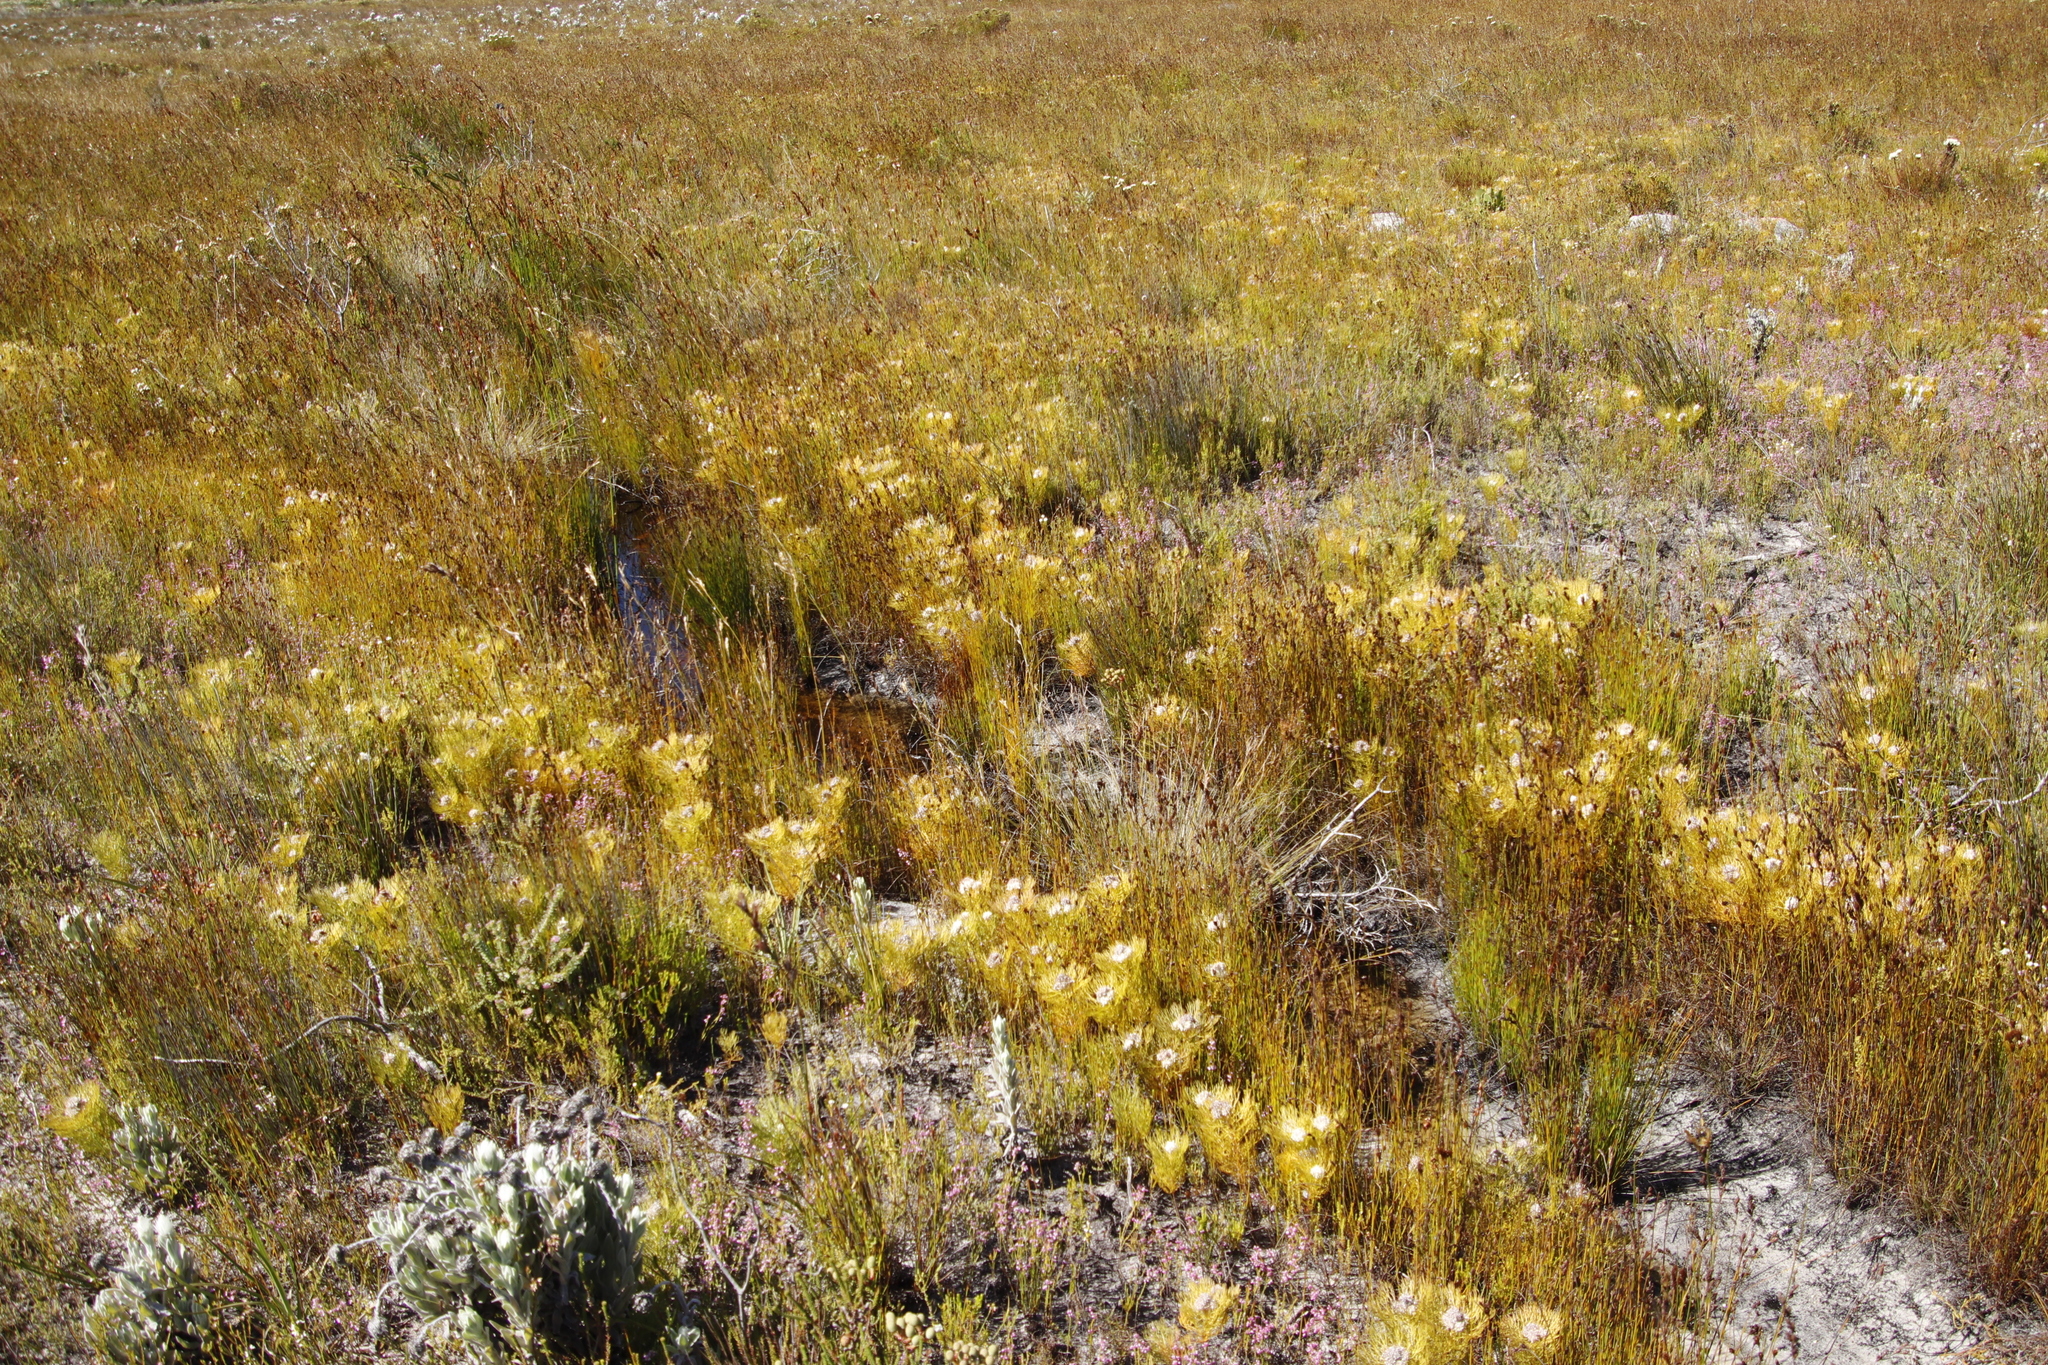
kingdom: Plantae
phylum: Tracheophyta
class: Magnoliopsida
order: Proteales
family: Proteaceae
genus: Serruria
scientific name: Serruria glomerata
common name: Cluster spiderhead
